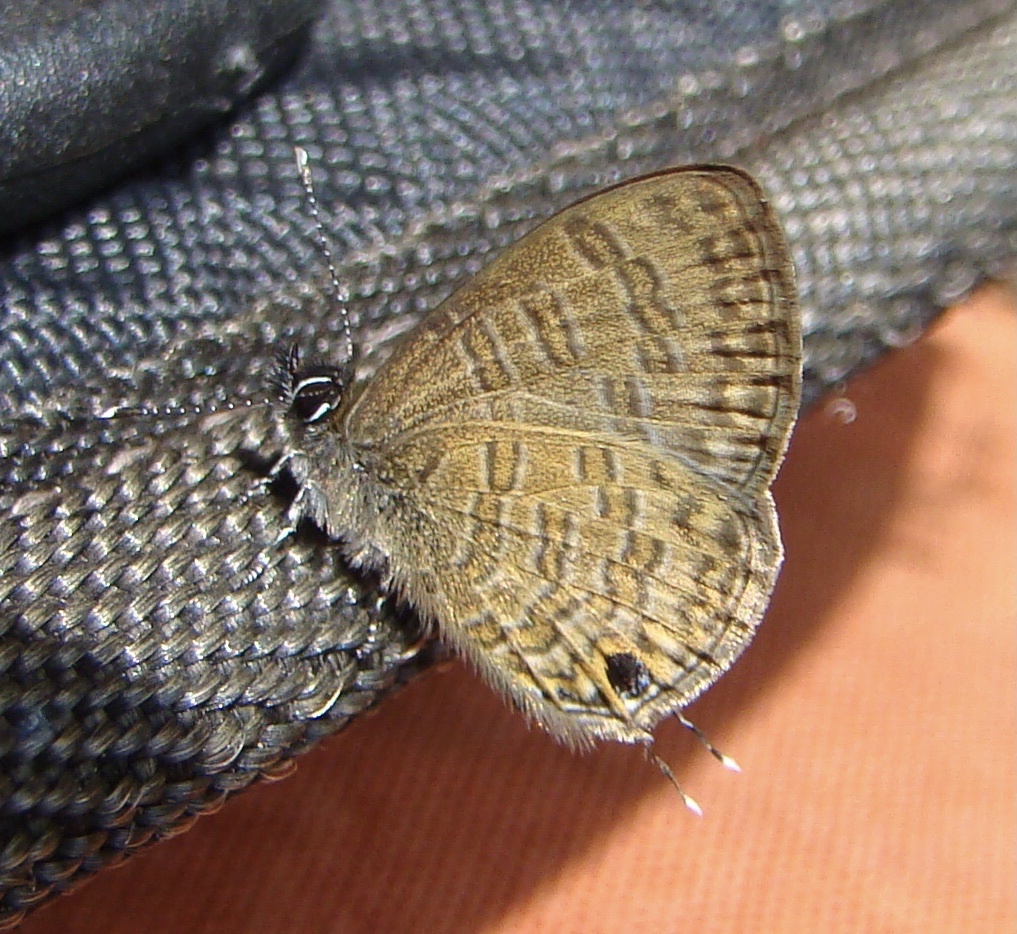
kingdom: Animalia
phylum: Arthropoda
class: Insecta
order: Lepidoptera
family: Lycaenidae
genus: Prosotas
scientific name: Prosotas nora
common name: Common line blue
